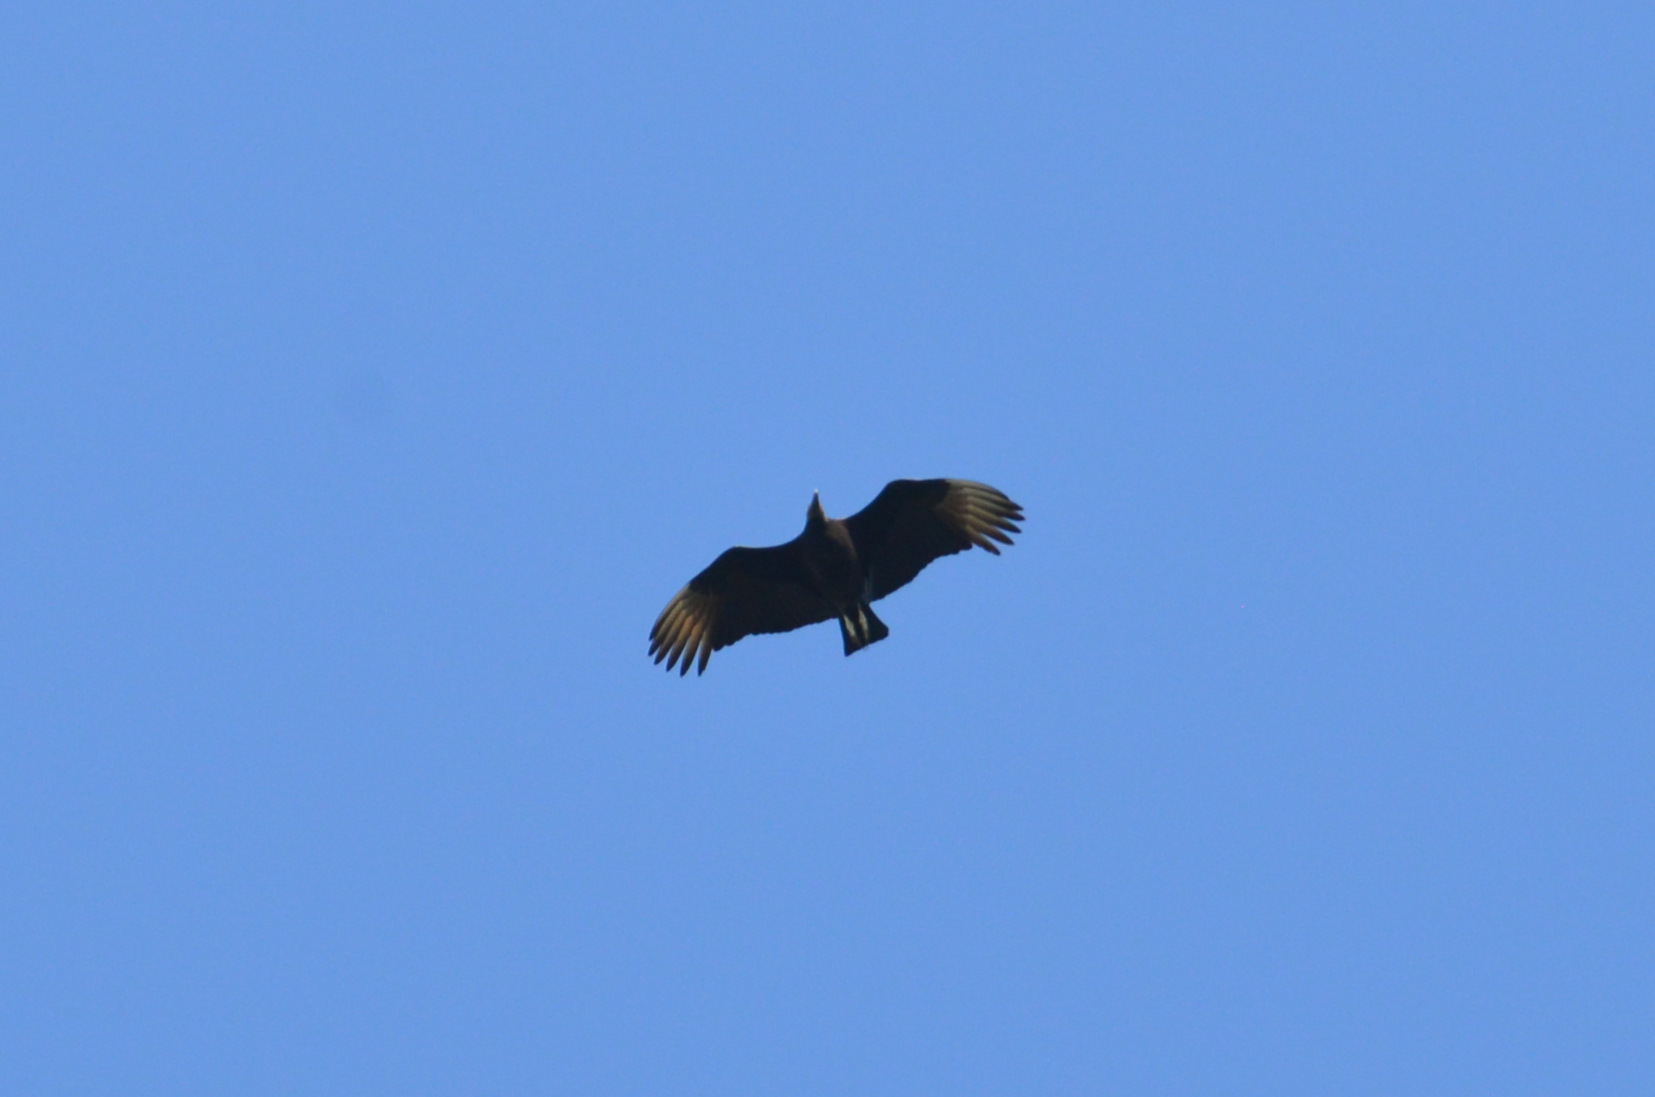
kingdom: Animalia
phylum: Chordata
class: Aves
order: Accipitriformes
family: Cathartidae
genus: Coragyps
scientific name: Coragyps atratus
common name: Black vulture
